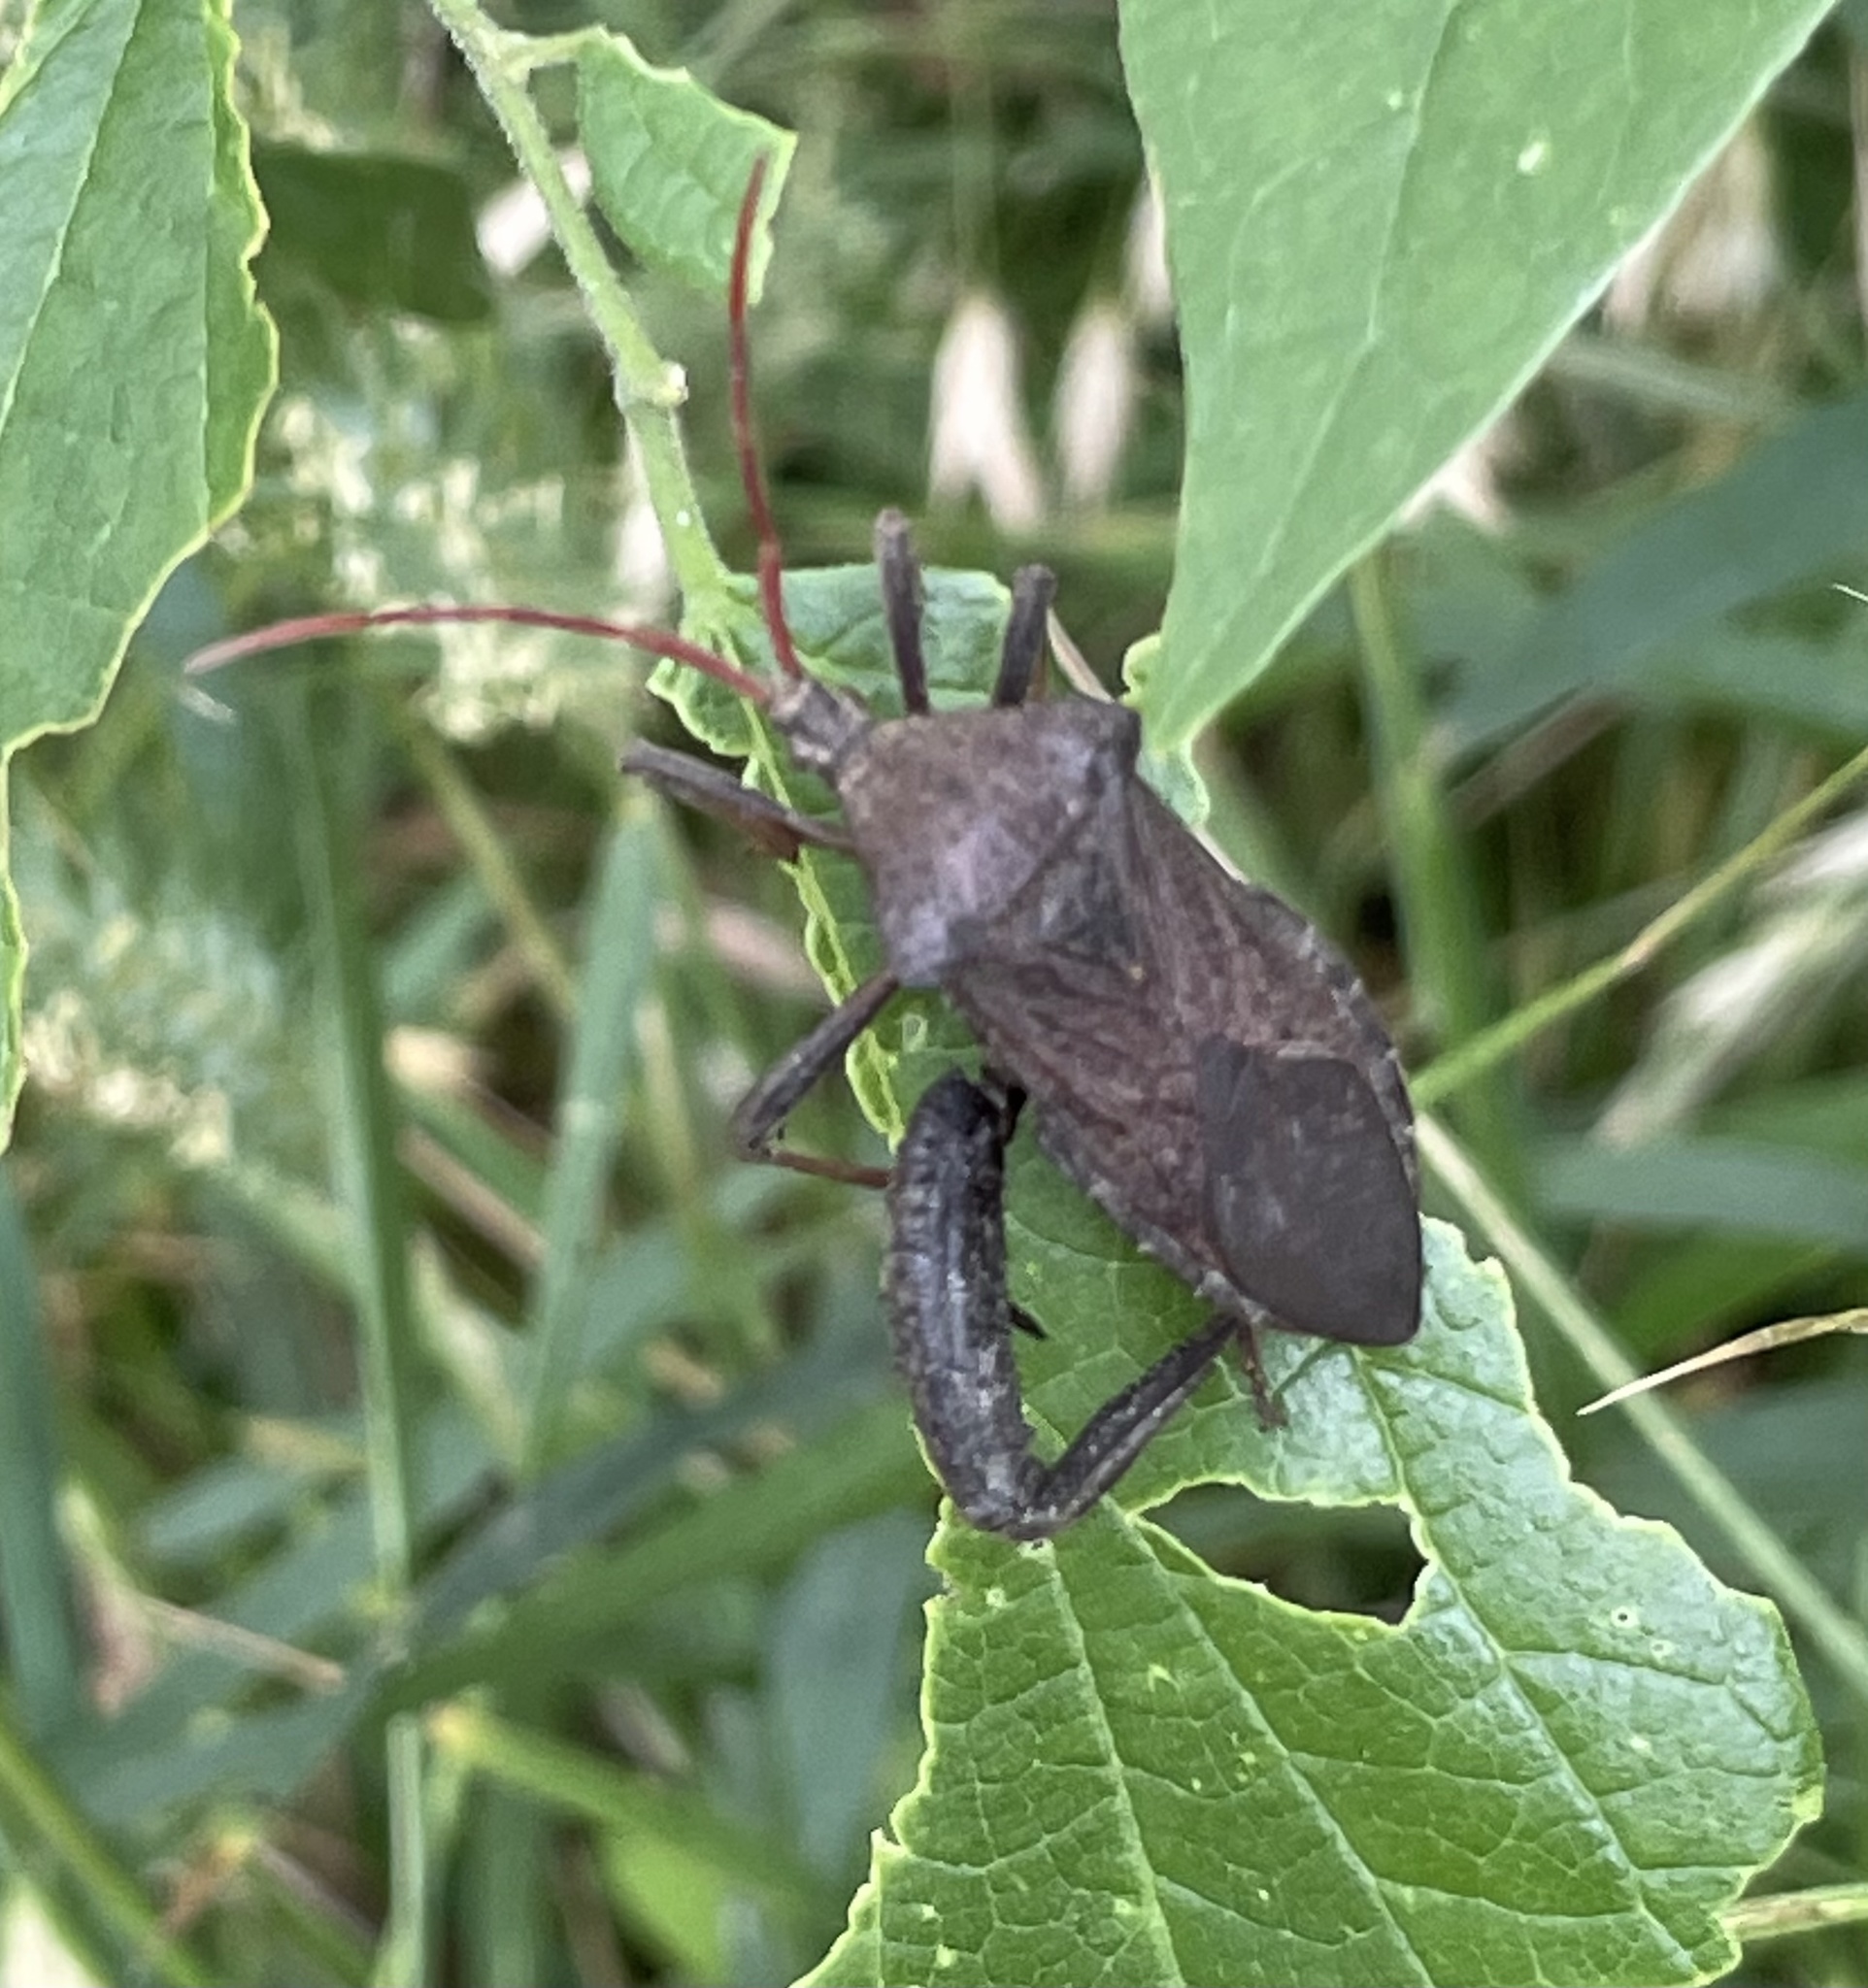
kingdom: Animalia
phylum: Arthropoda
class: Insecta
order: Hemiptera
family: Coreidae
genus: Acanthocephala
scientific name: Acanthocephala femorata
